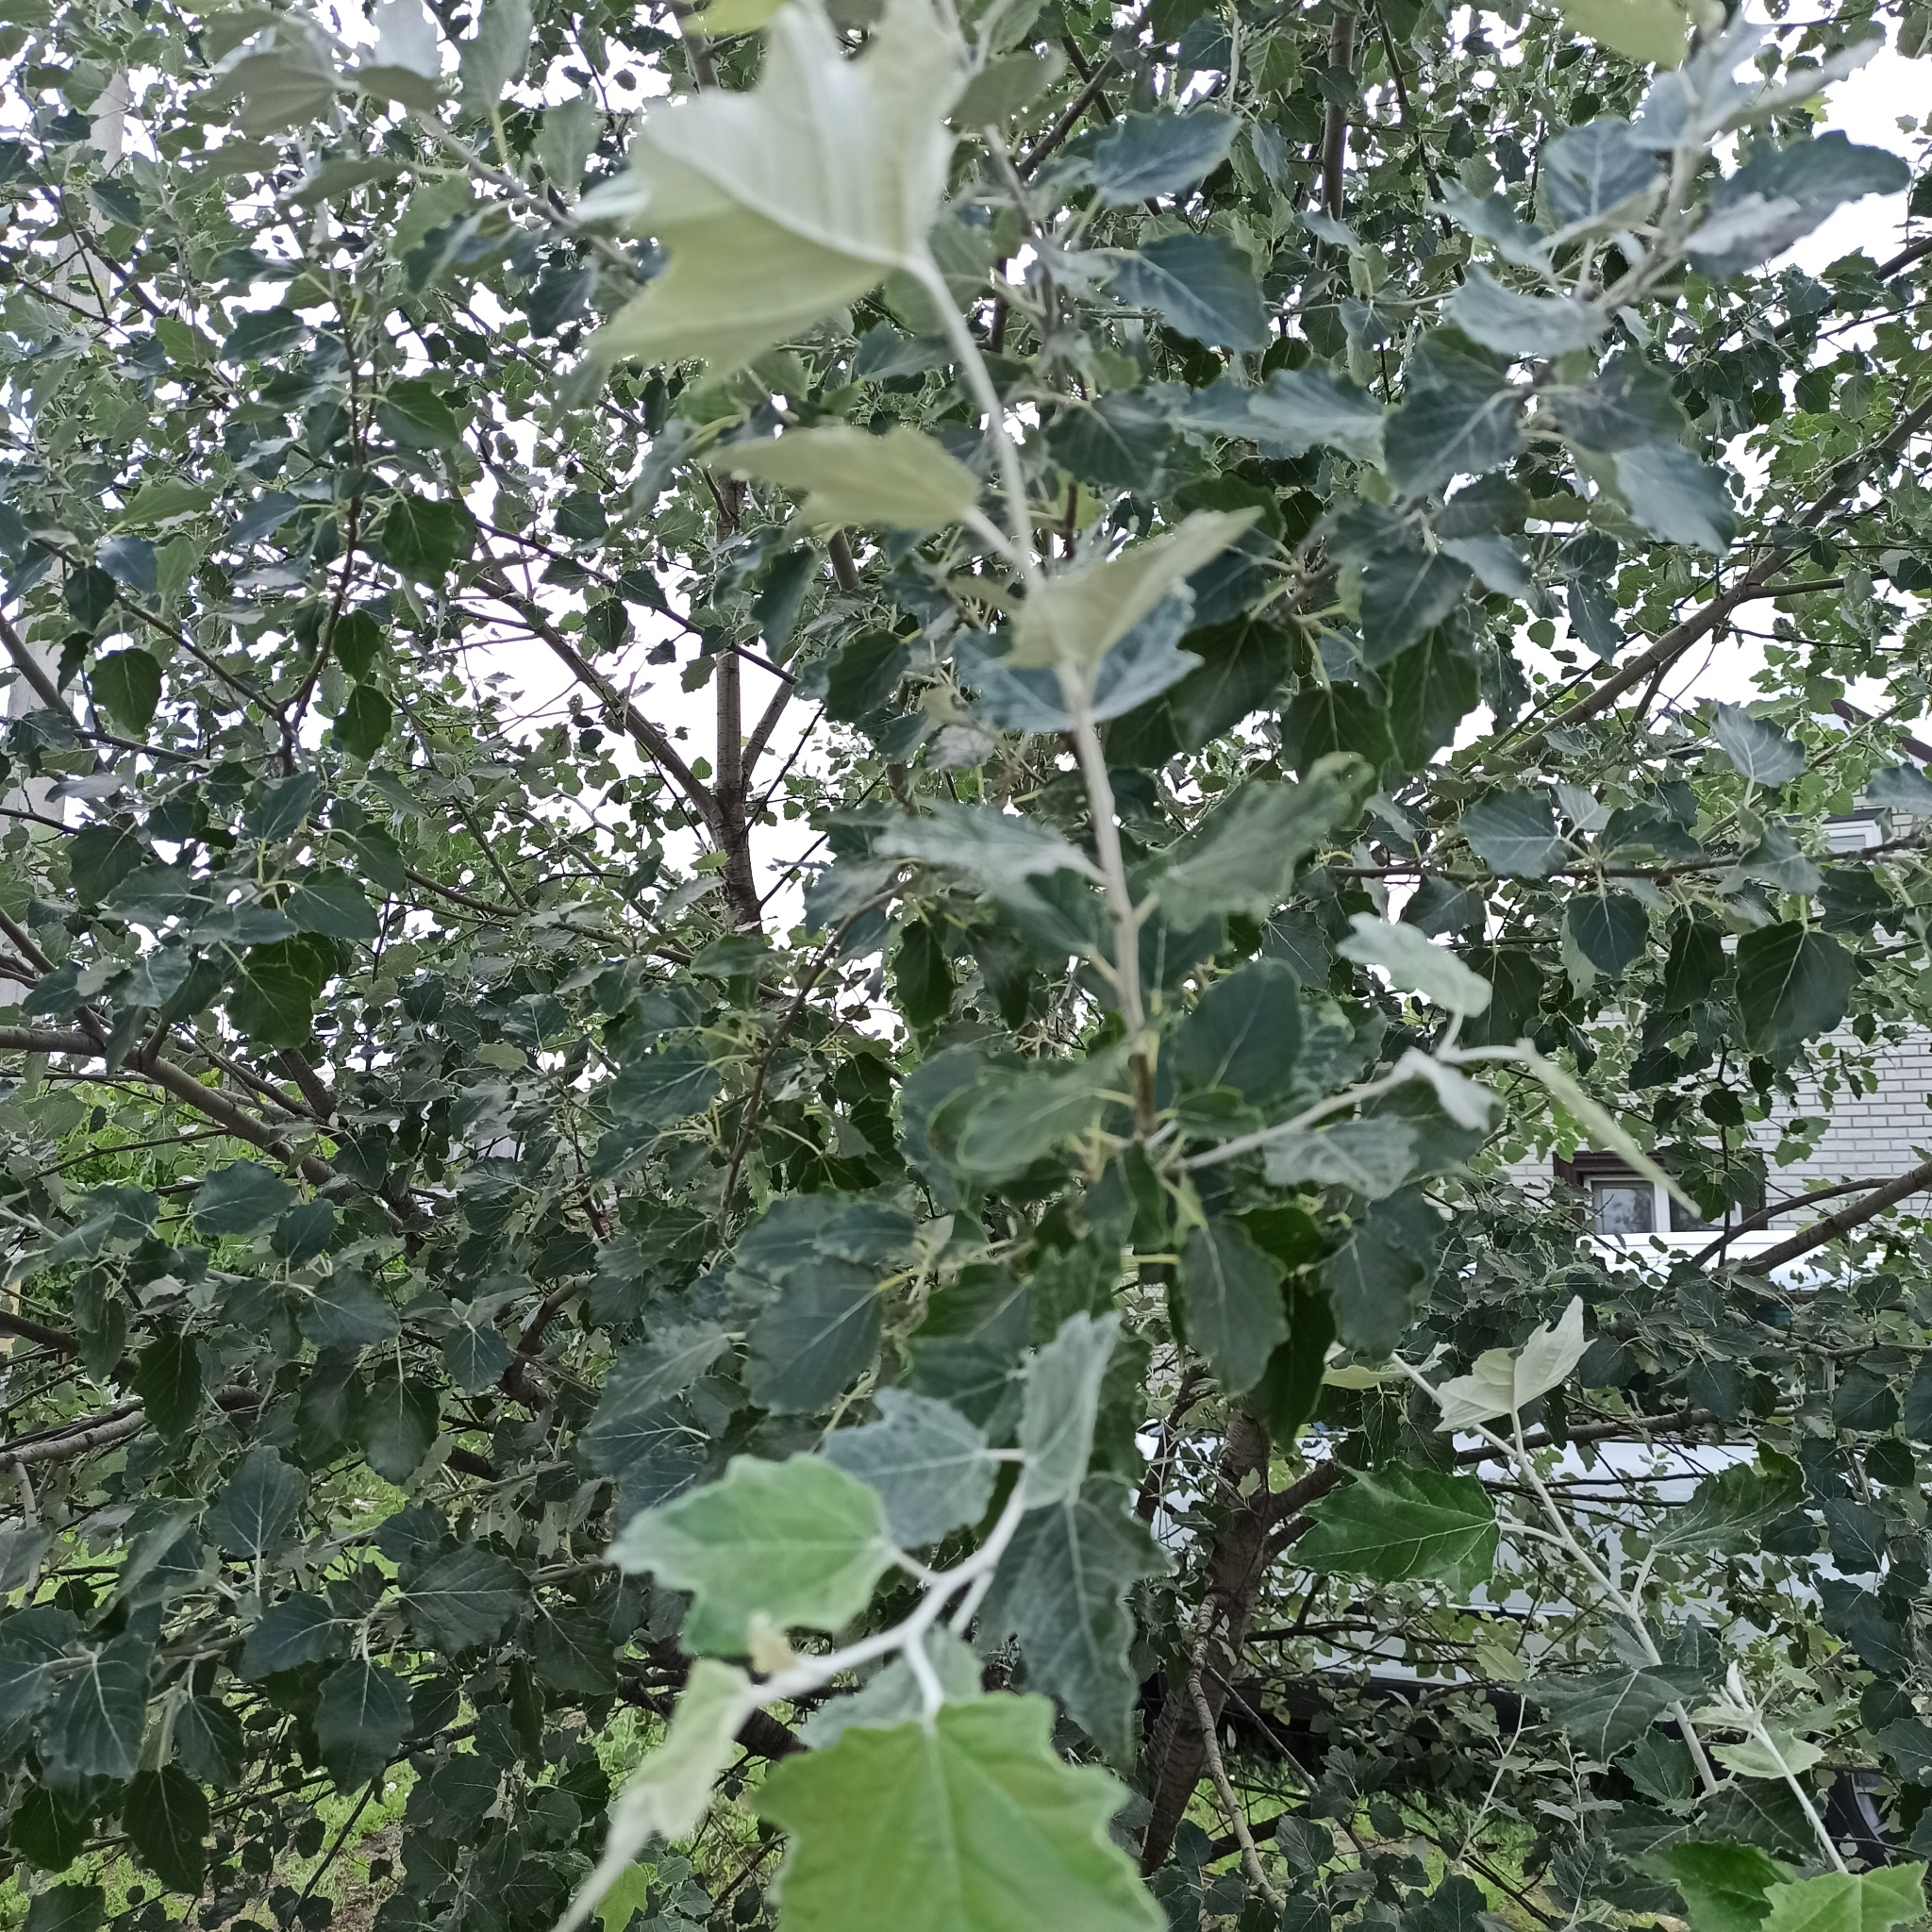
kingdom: Plantae
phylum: Tracheophyta
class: Magnoliopsida
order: Malpighiales
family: Salicaceae
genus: Populus
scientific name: Populus alba
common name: White poplar
